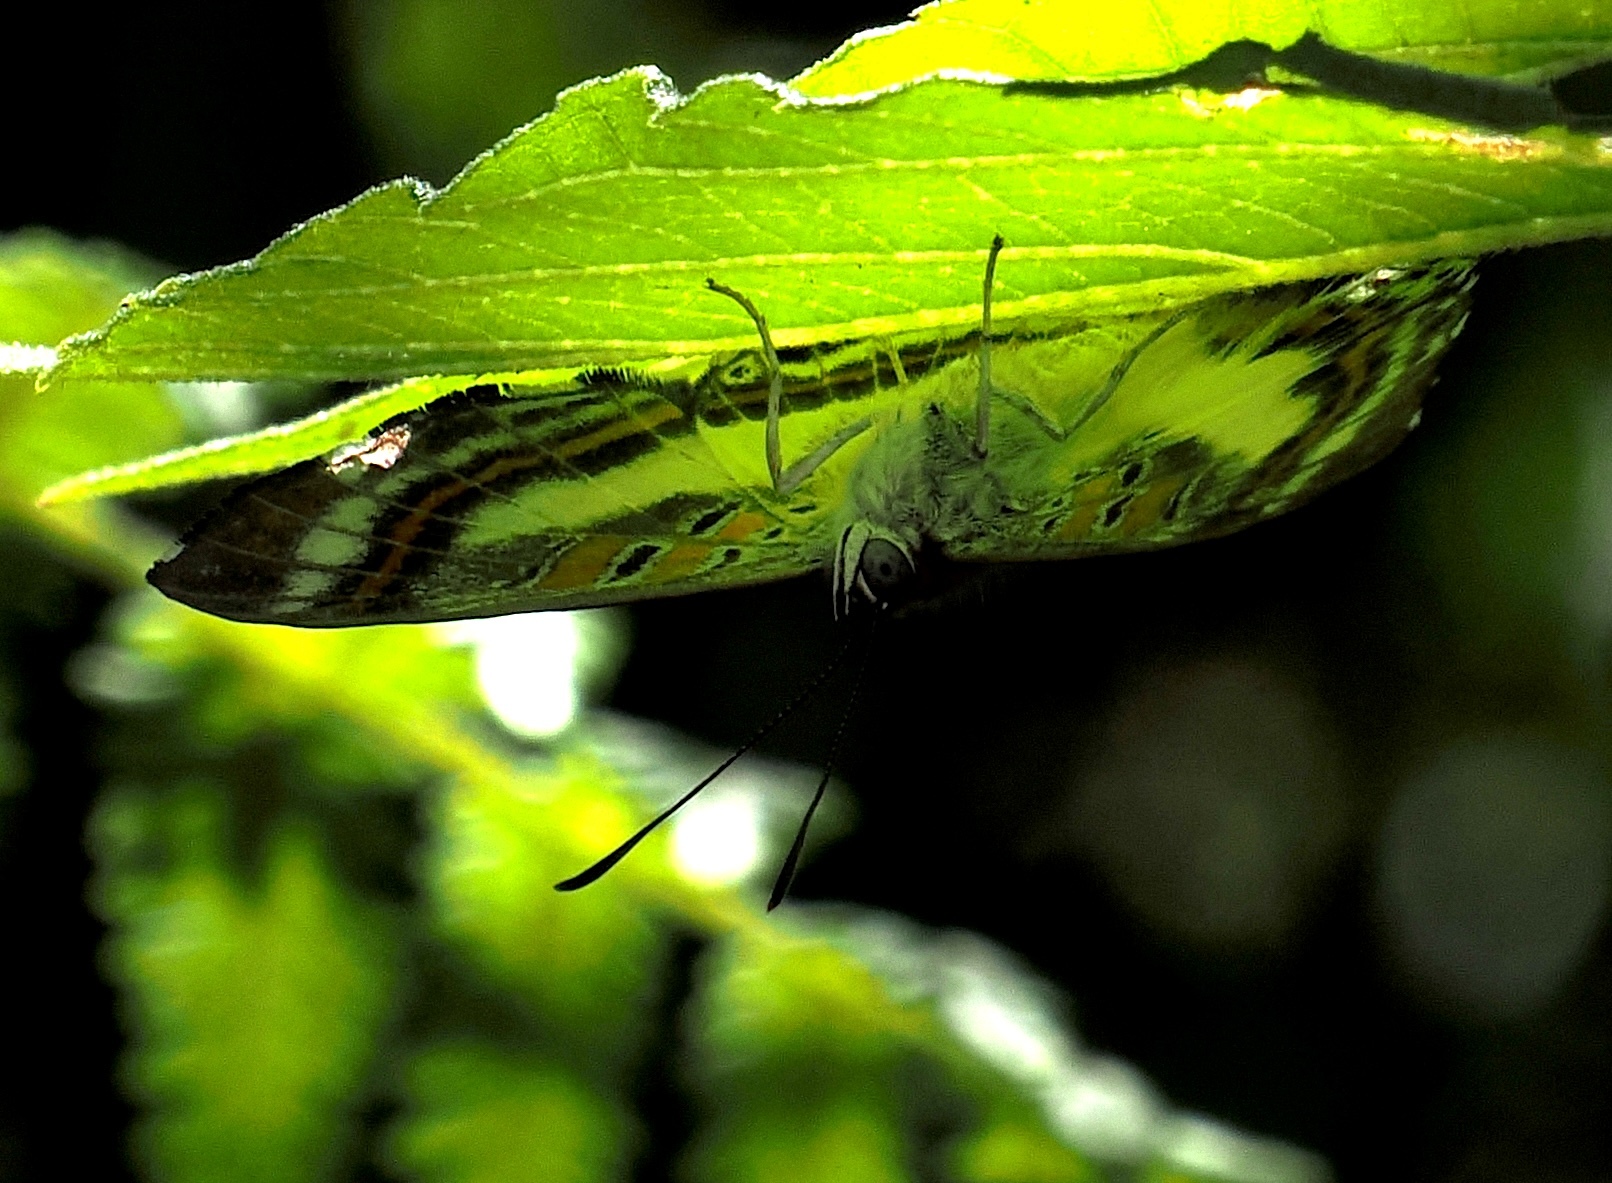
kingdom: Animalia
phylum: Arthropoda
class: Insecta
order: Lepidoptera
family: Riodinidae
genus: Synargis
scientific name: Synargis
